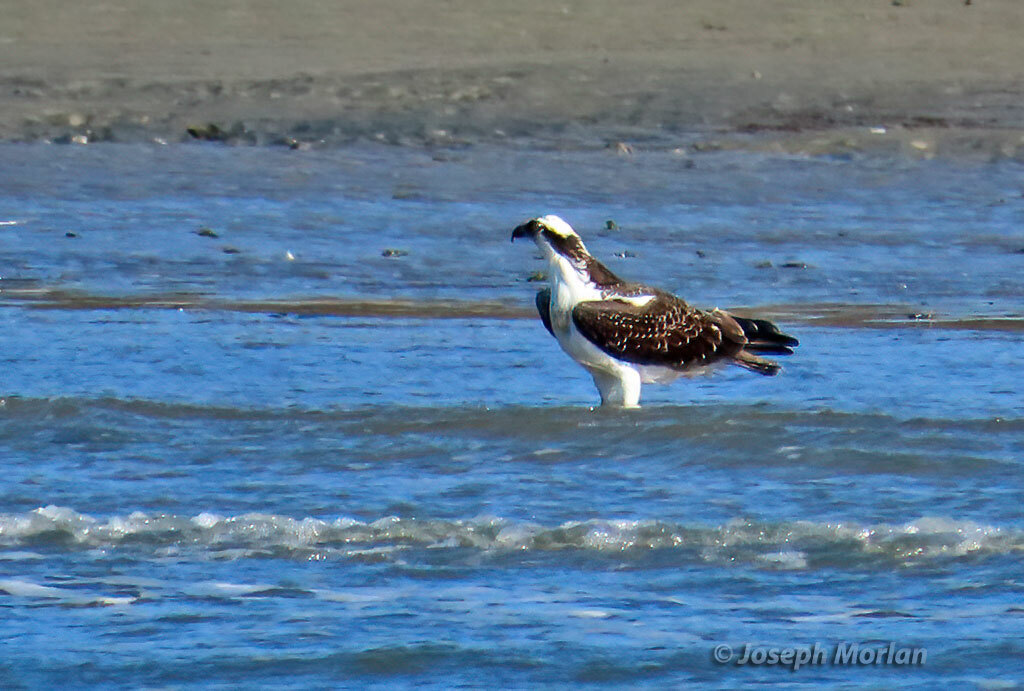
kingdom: Animalia
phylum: Chordata
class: Aves
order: Accipitriformes
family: Pandionidae
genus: Pandion
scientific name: Pandion haliaetus
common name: Osprey
